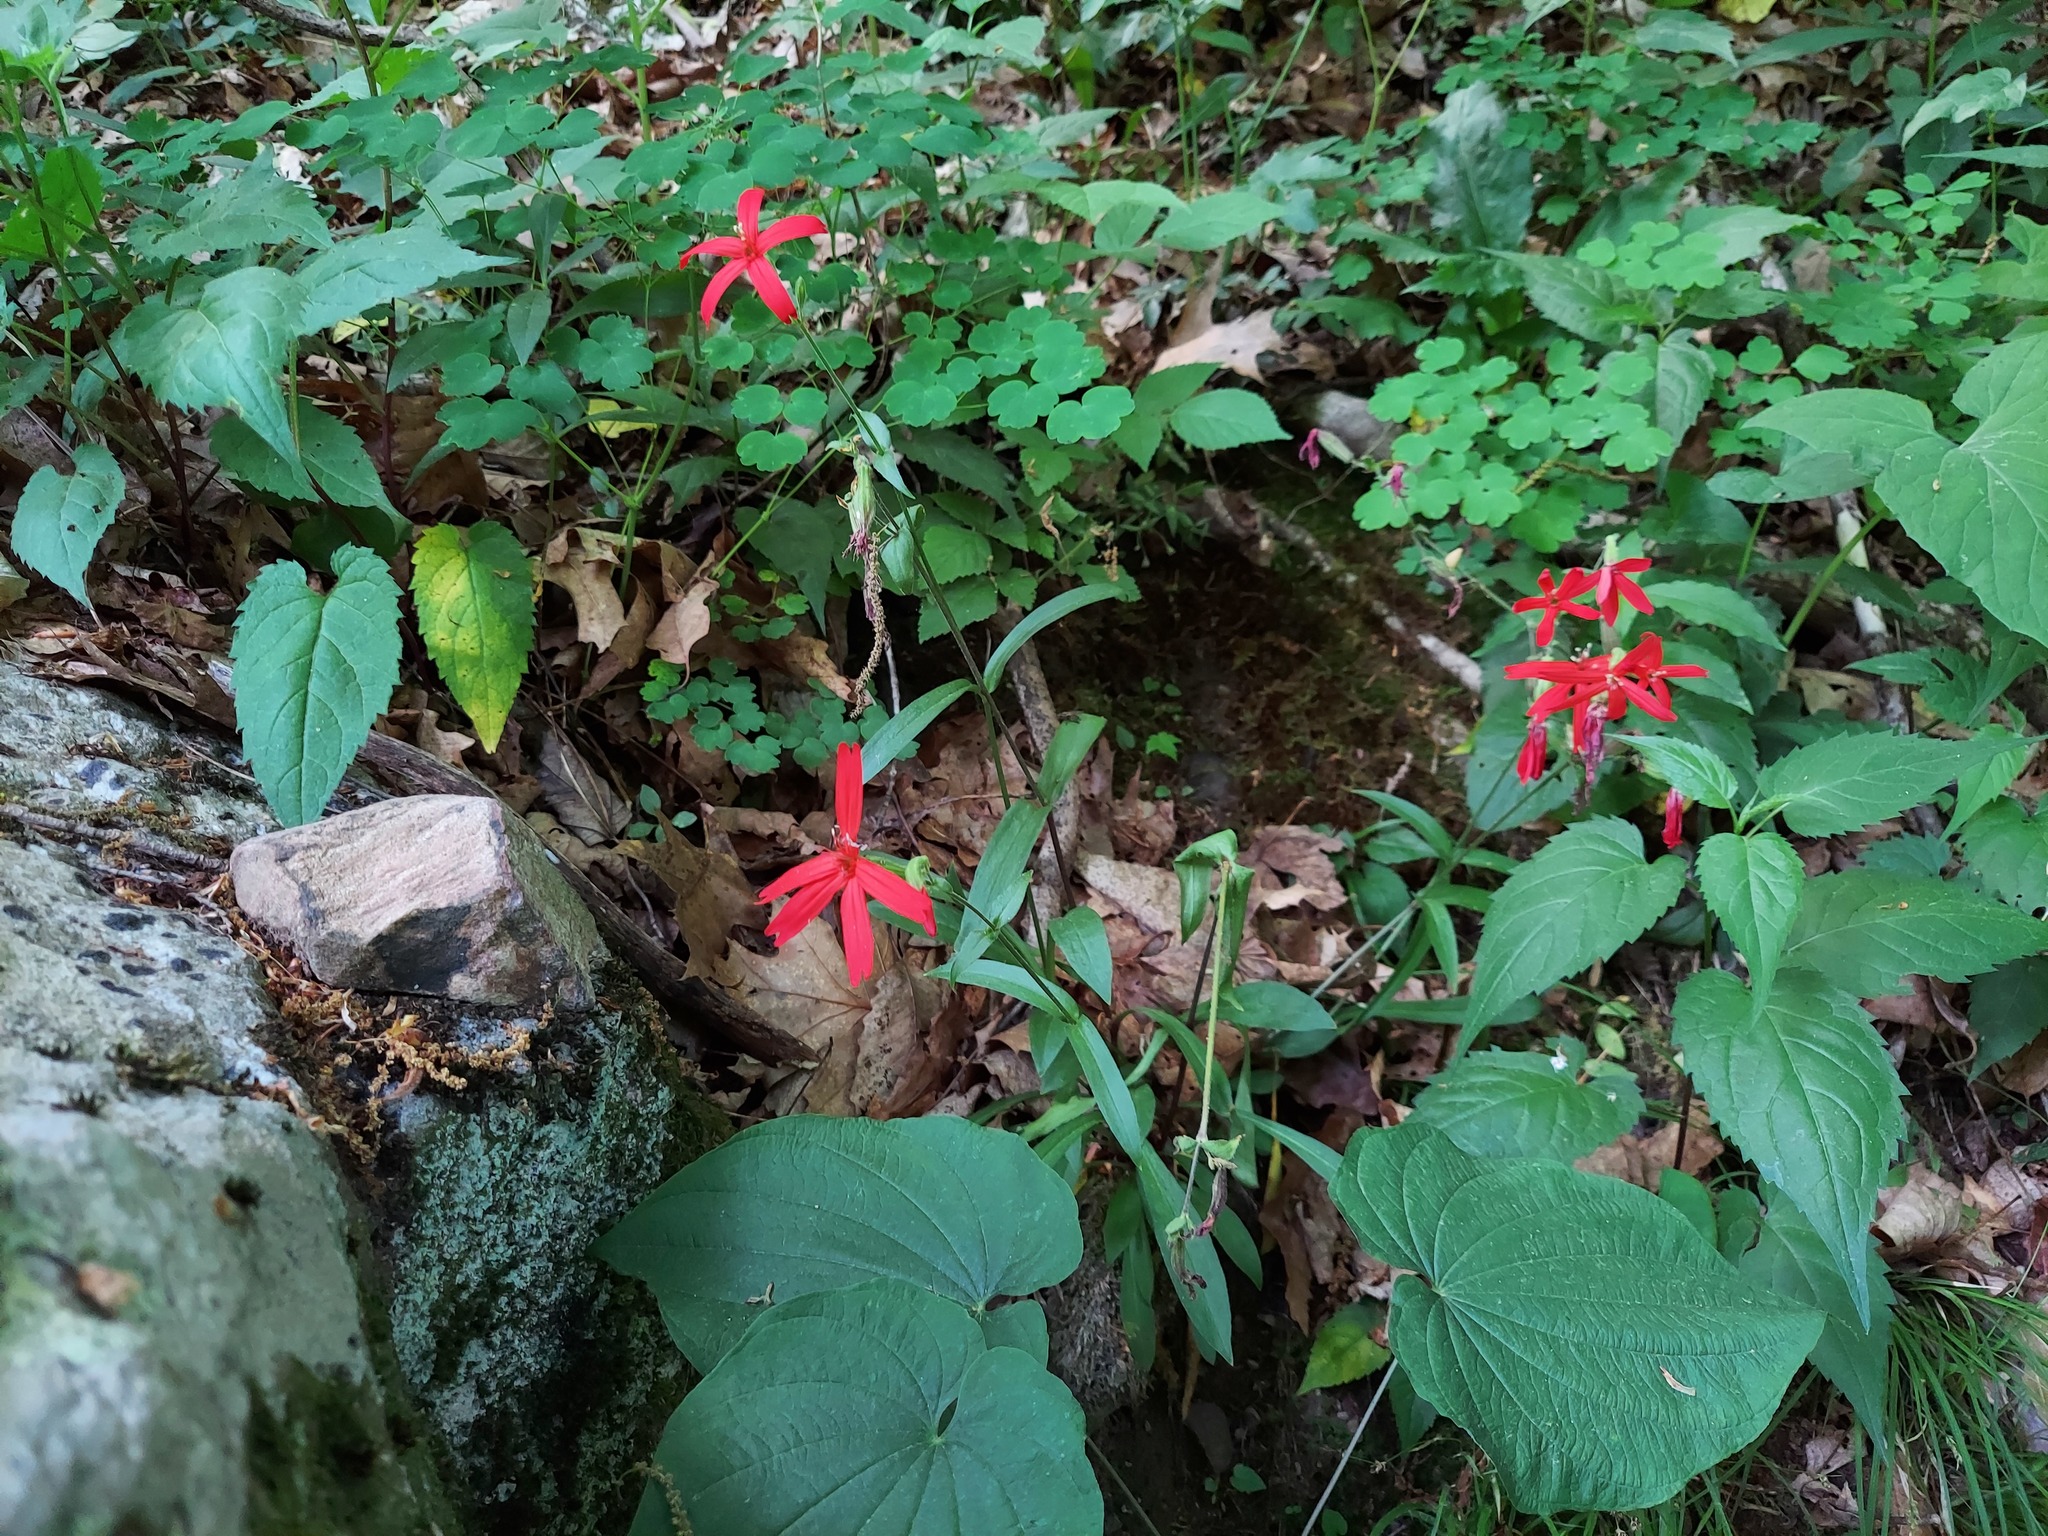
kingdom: Plantae
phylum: Tracheophyta
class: Magnoliopsida
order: Caryophyllales
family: Caryophyllaceae
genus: Silene
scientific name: Silene virginica
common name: Fire-pink
